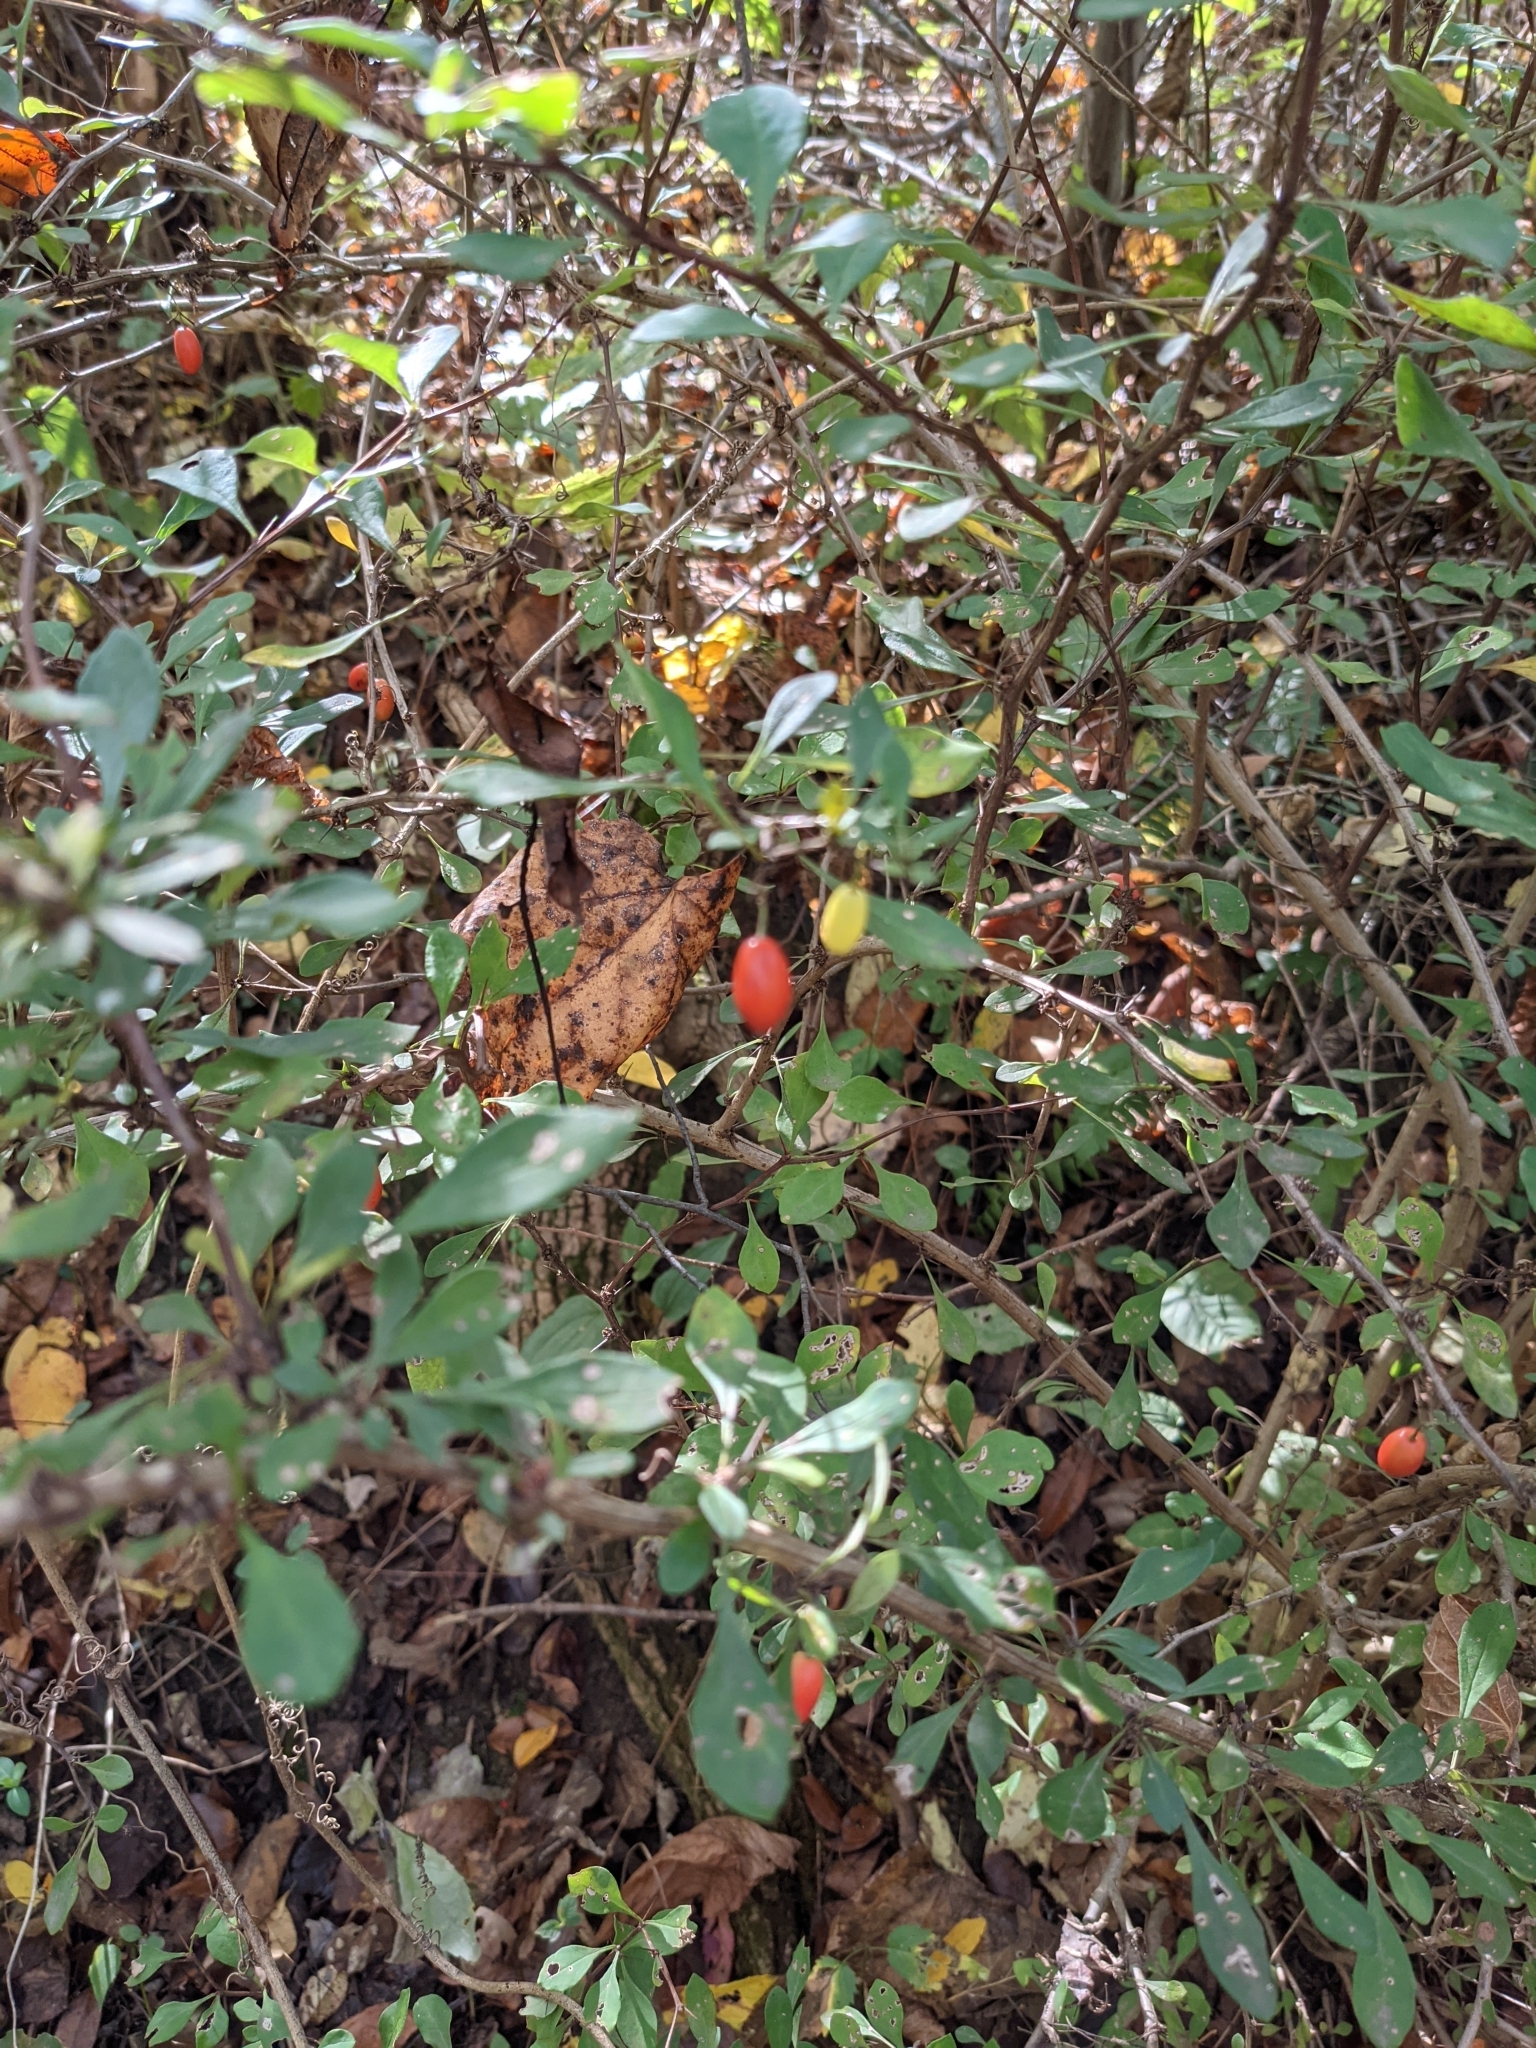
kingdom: Plantae
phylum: Tracheophyta
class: Magnoliopsida
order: Ranunculales
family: Berberidaceae
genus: Berberis
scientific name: Berberis thunbergii
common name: Japanese barberry
